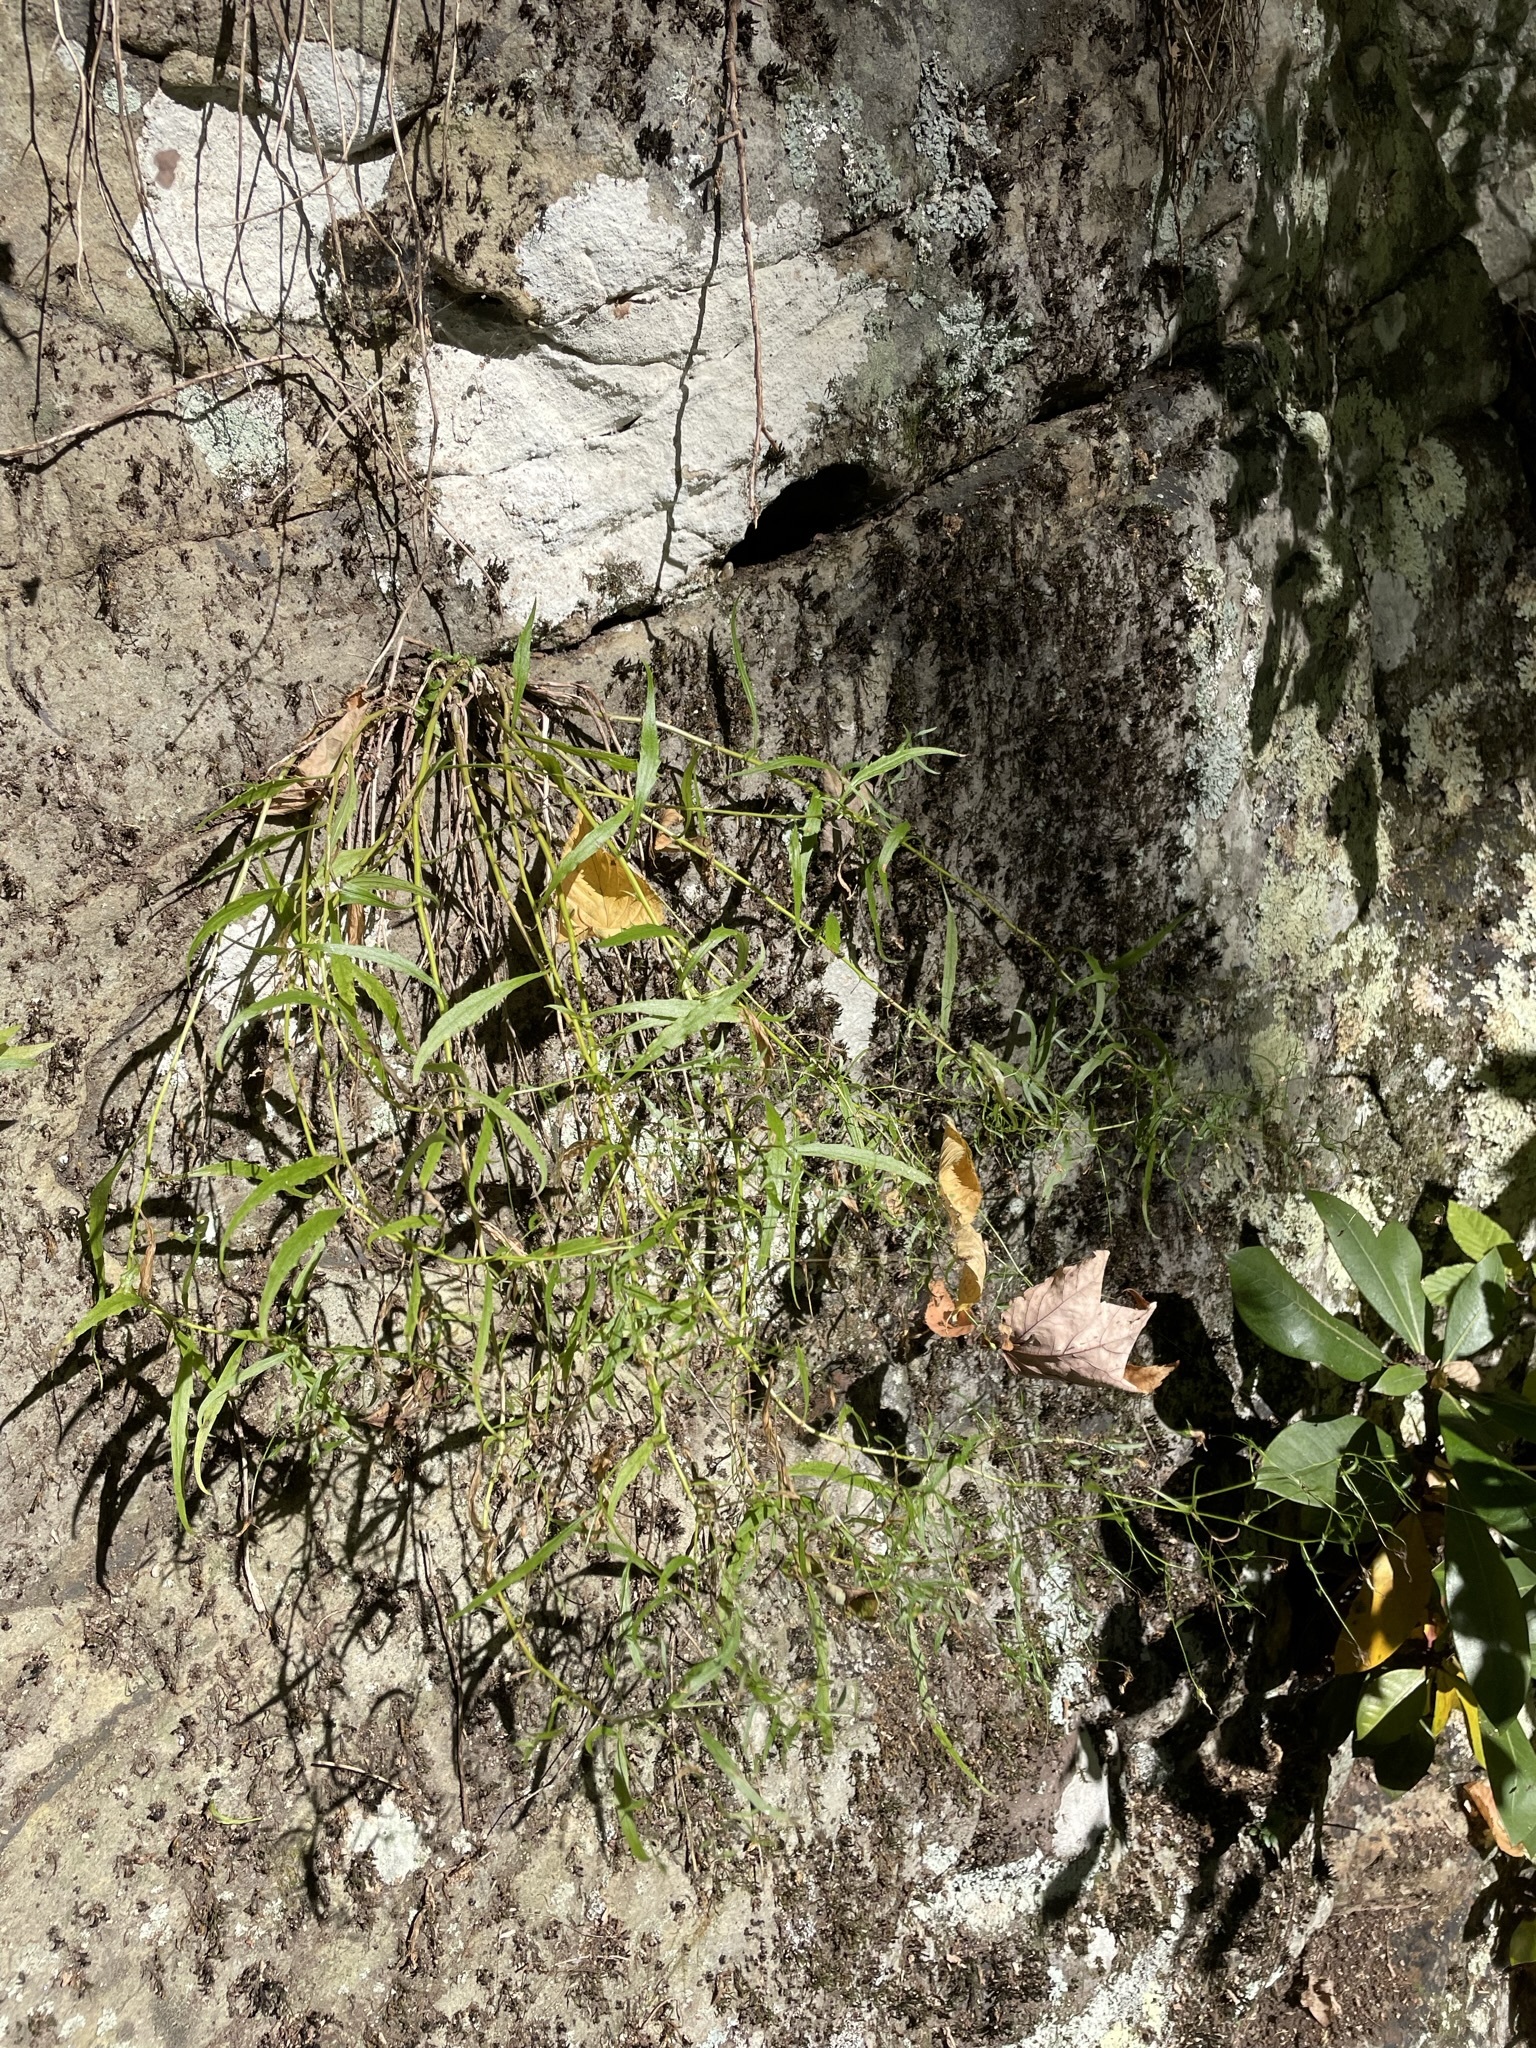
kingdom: Plantae
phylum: Tracheophyta
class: Magnoliopsida
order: Asterales
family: Campanulaceae
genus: Campanula
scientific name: Campanula divaricata
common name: Appalachian bellflower
